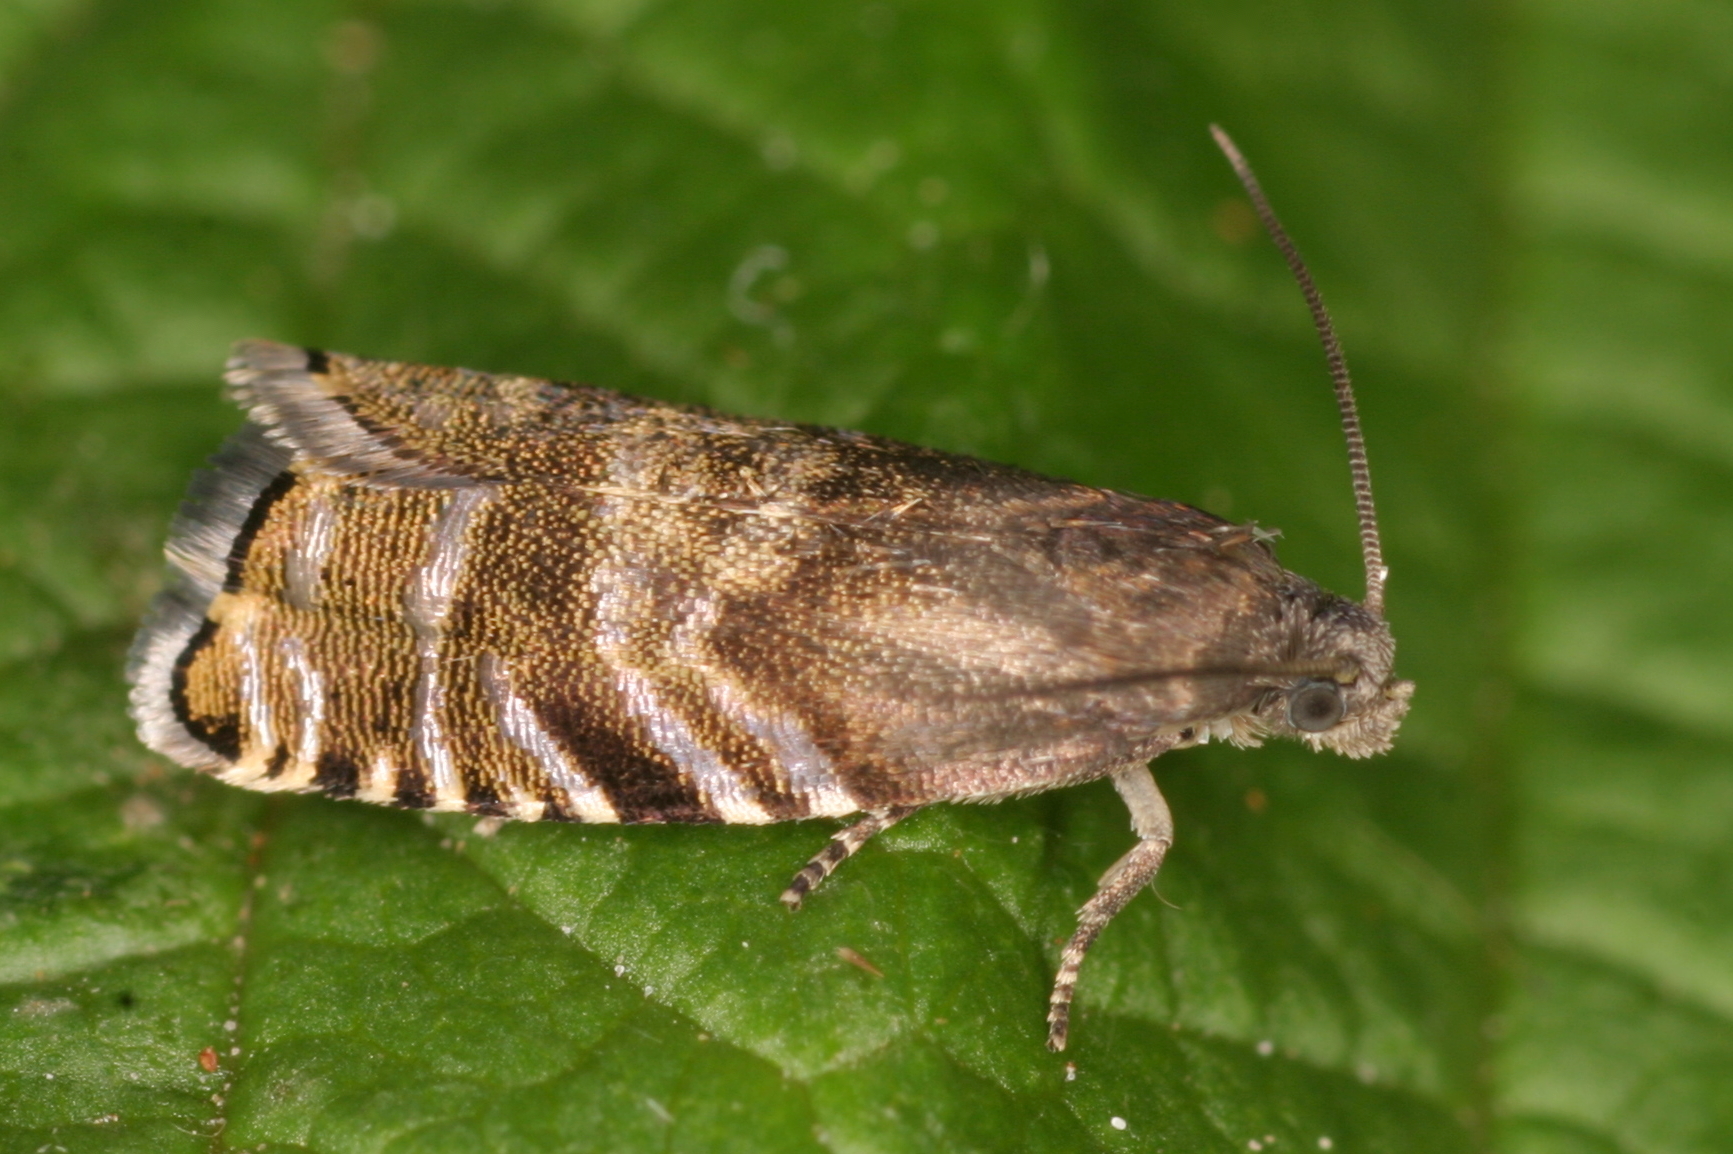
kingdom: Animalia
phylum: Arthropoda
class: Insecta
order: Lepidoptera
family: Tortricidae
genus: Cydia
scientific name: Cydia strobilella
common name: Spruce seed moth
